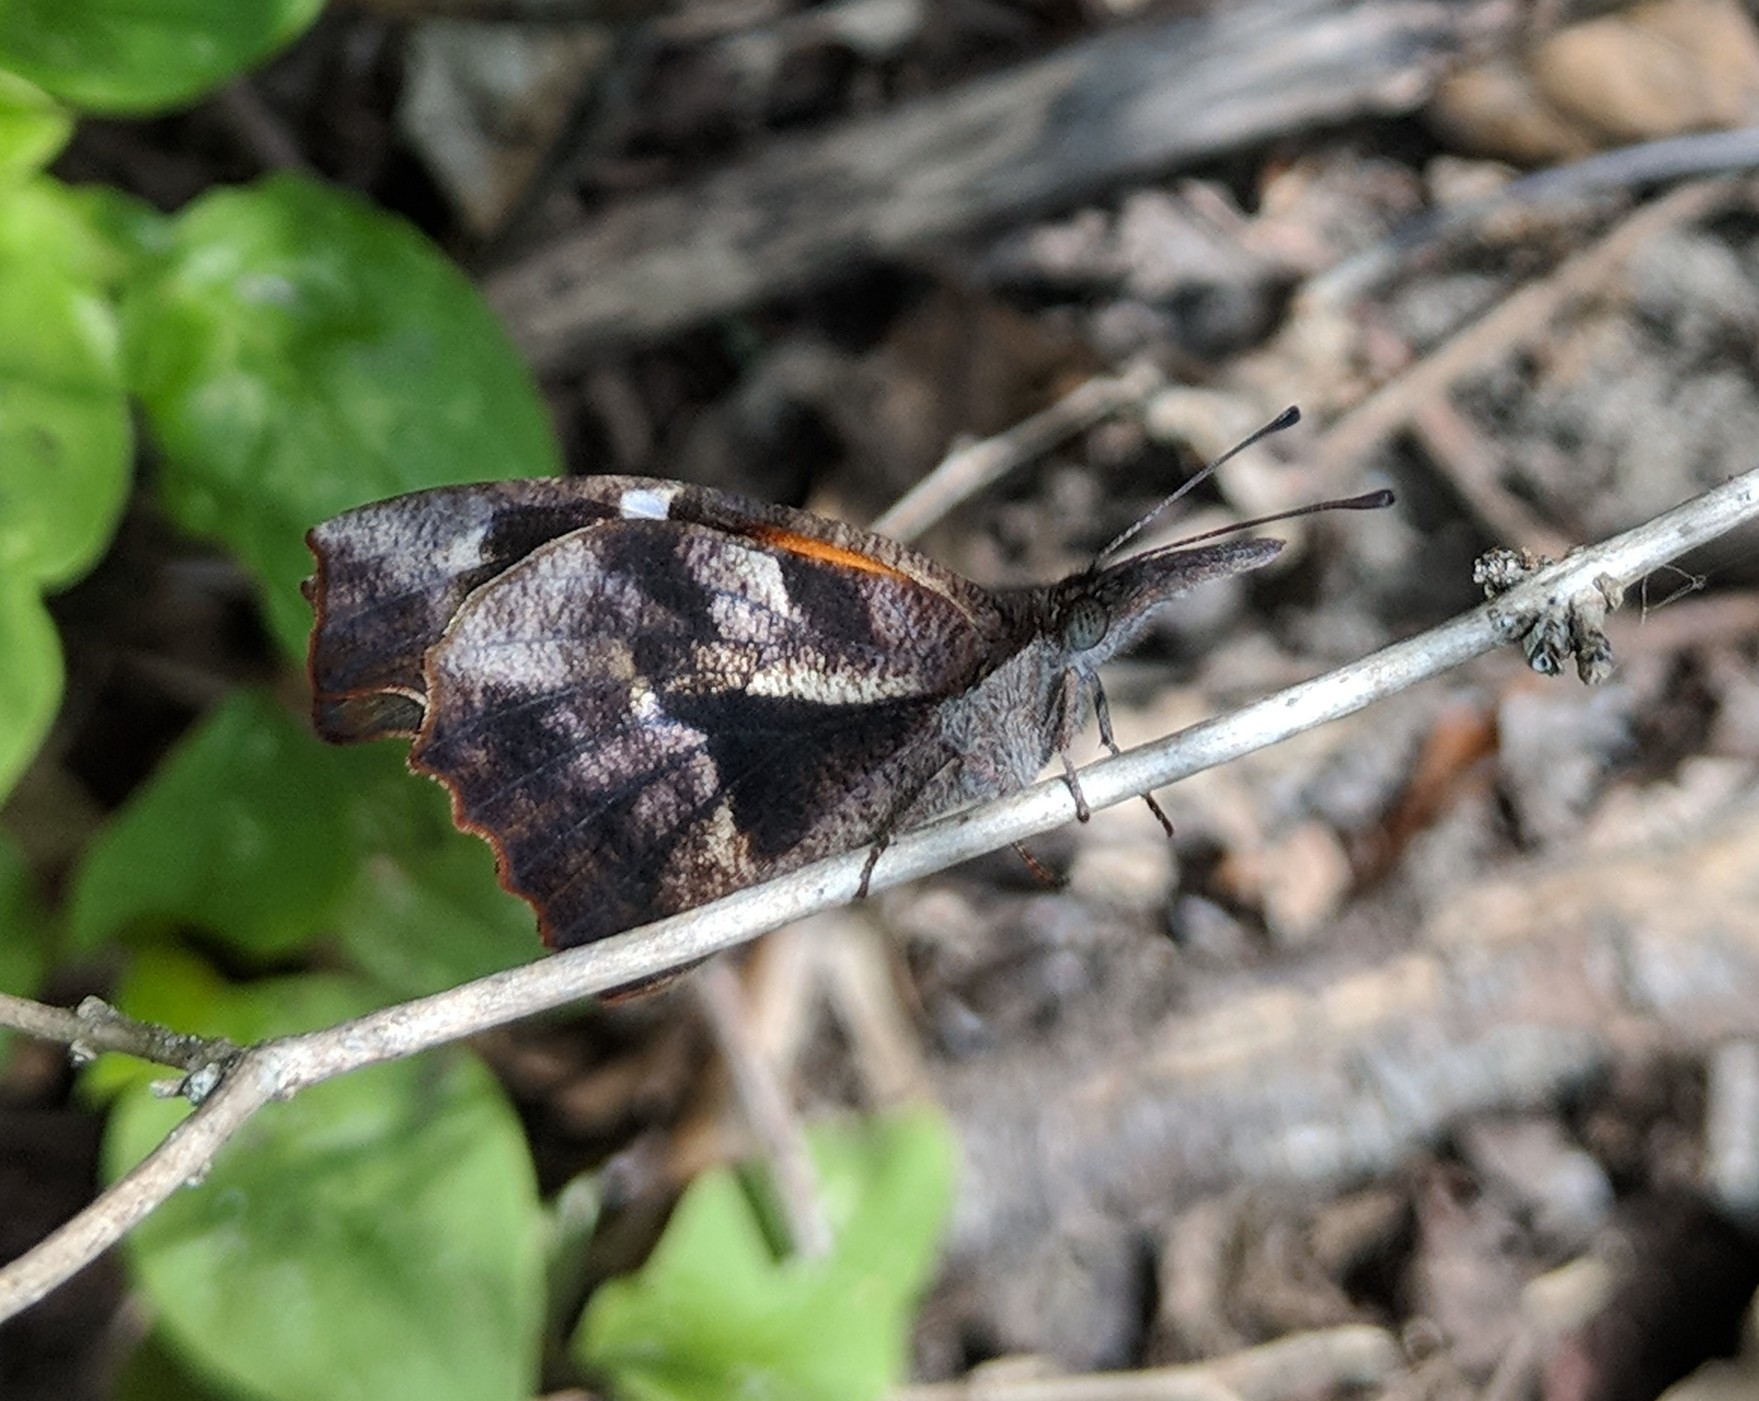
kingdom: Animalia
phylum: Arthropoda
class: Insecta
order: Lepidoptera
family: Nymphalidae
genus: Libytheana
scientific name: Libytheana carinenta
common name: American snout
